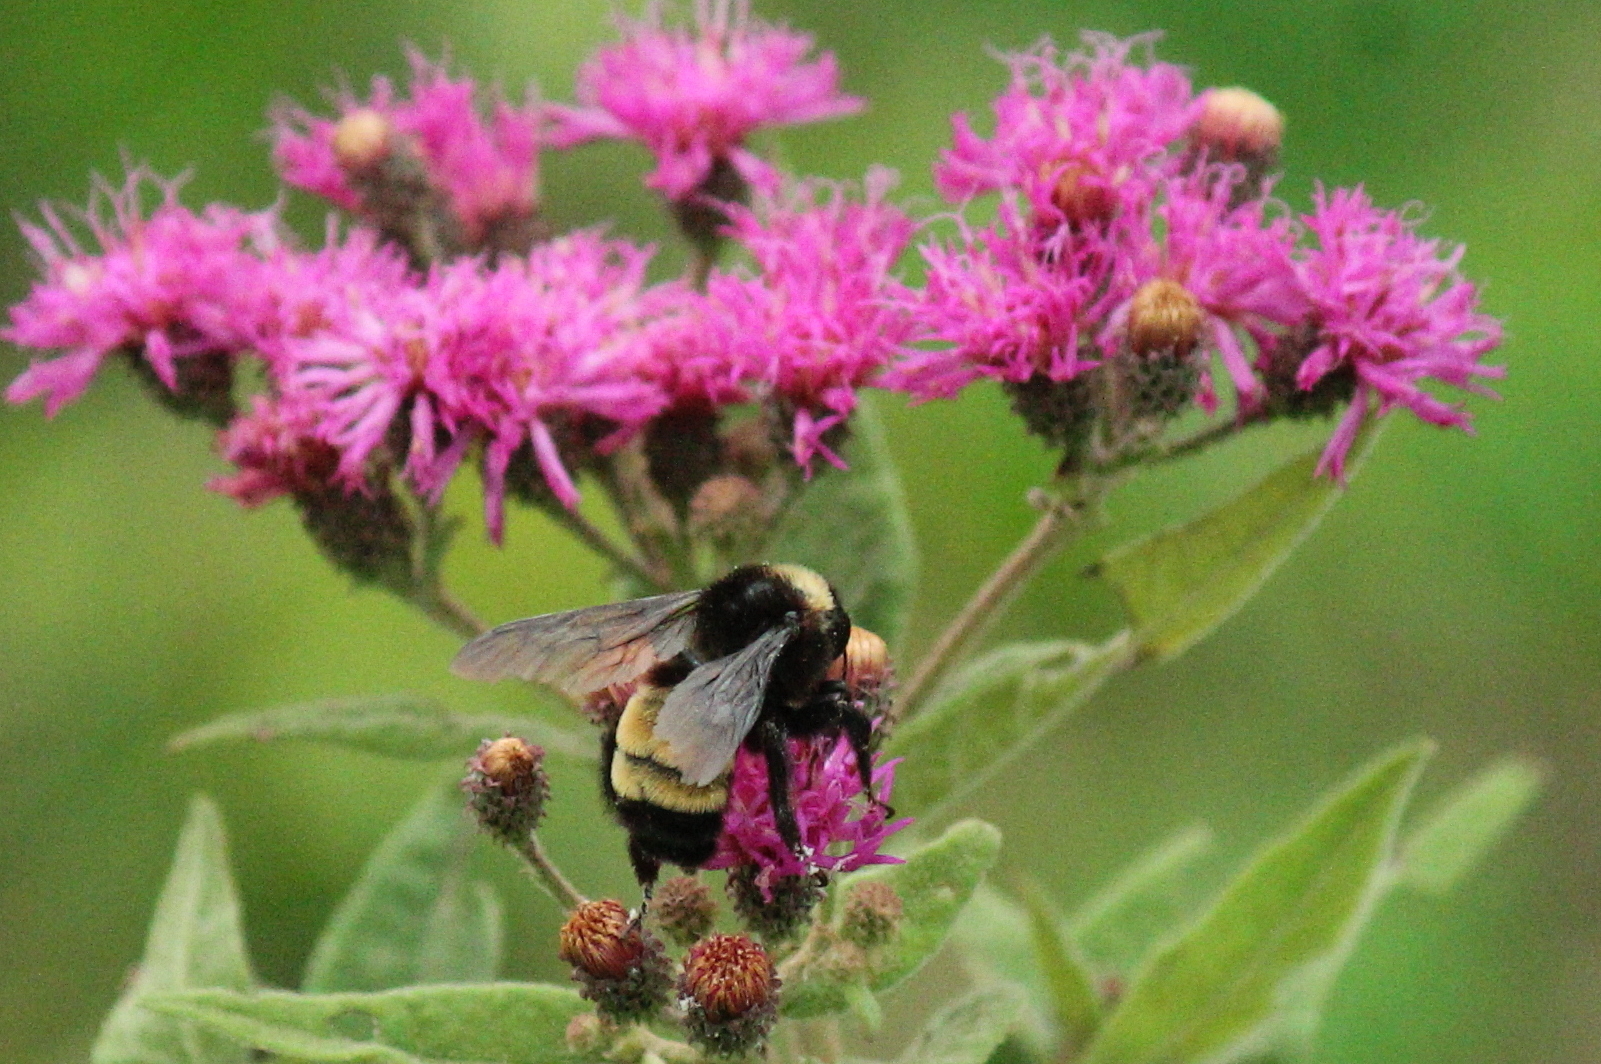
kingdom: Animalia
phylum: Arthropoda
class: Insecta
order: Hymenoptera
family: Apidae
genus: Bombus
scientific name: Bombus pensylvanicus
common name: Bumble bee
